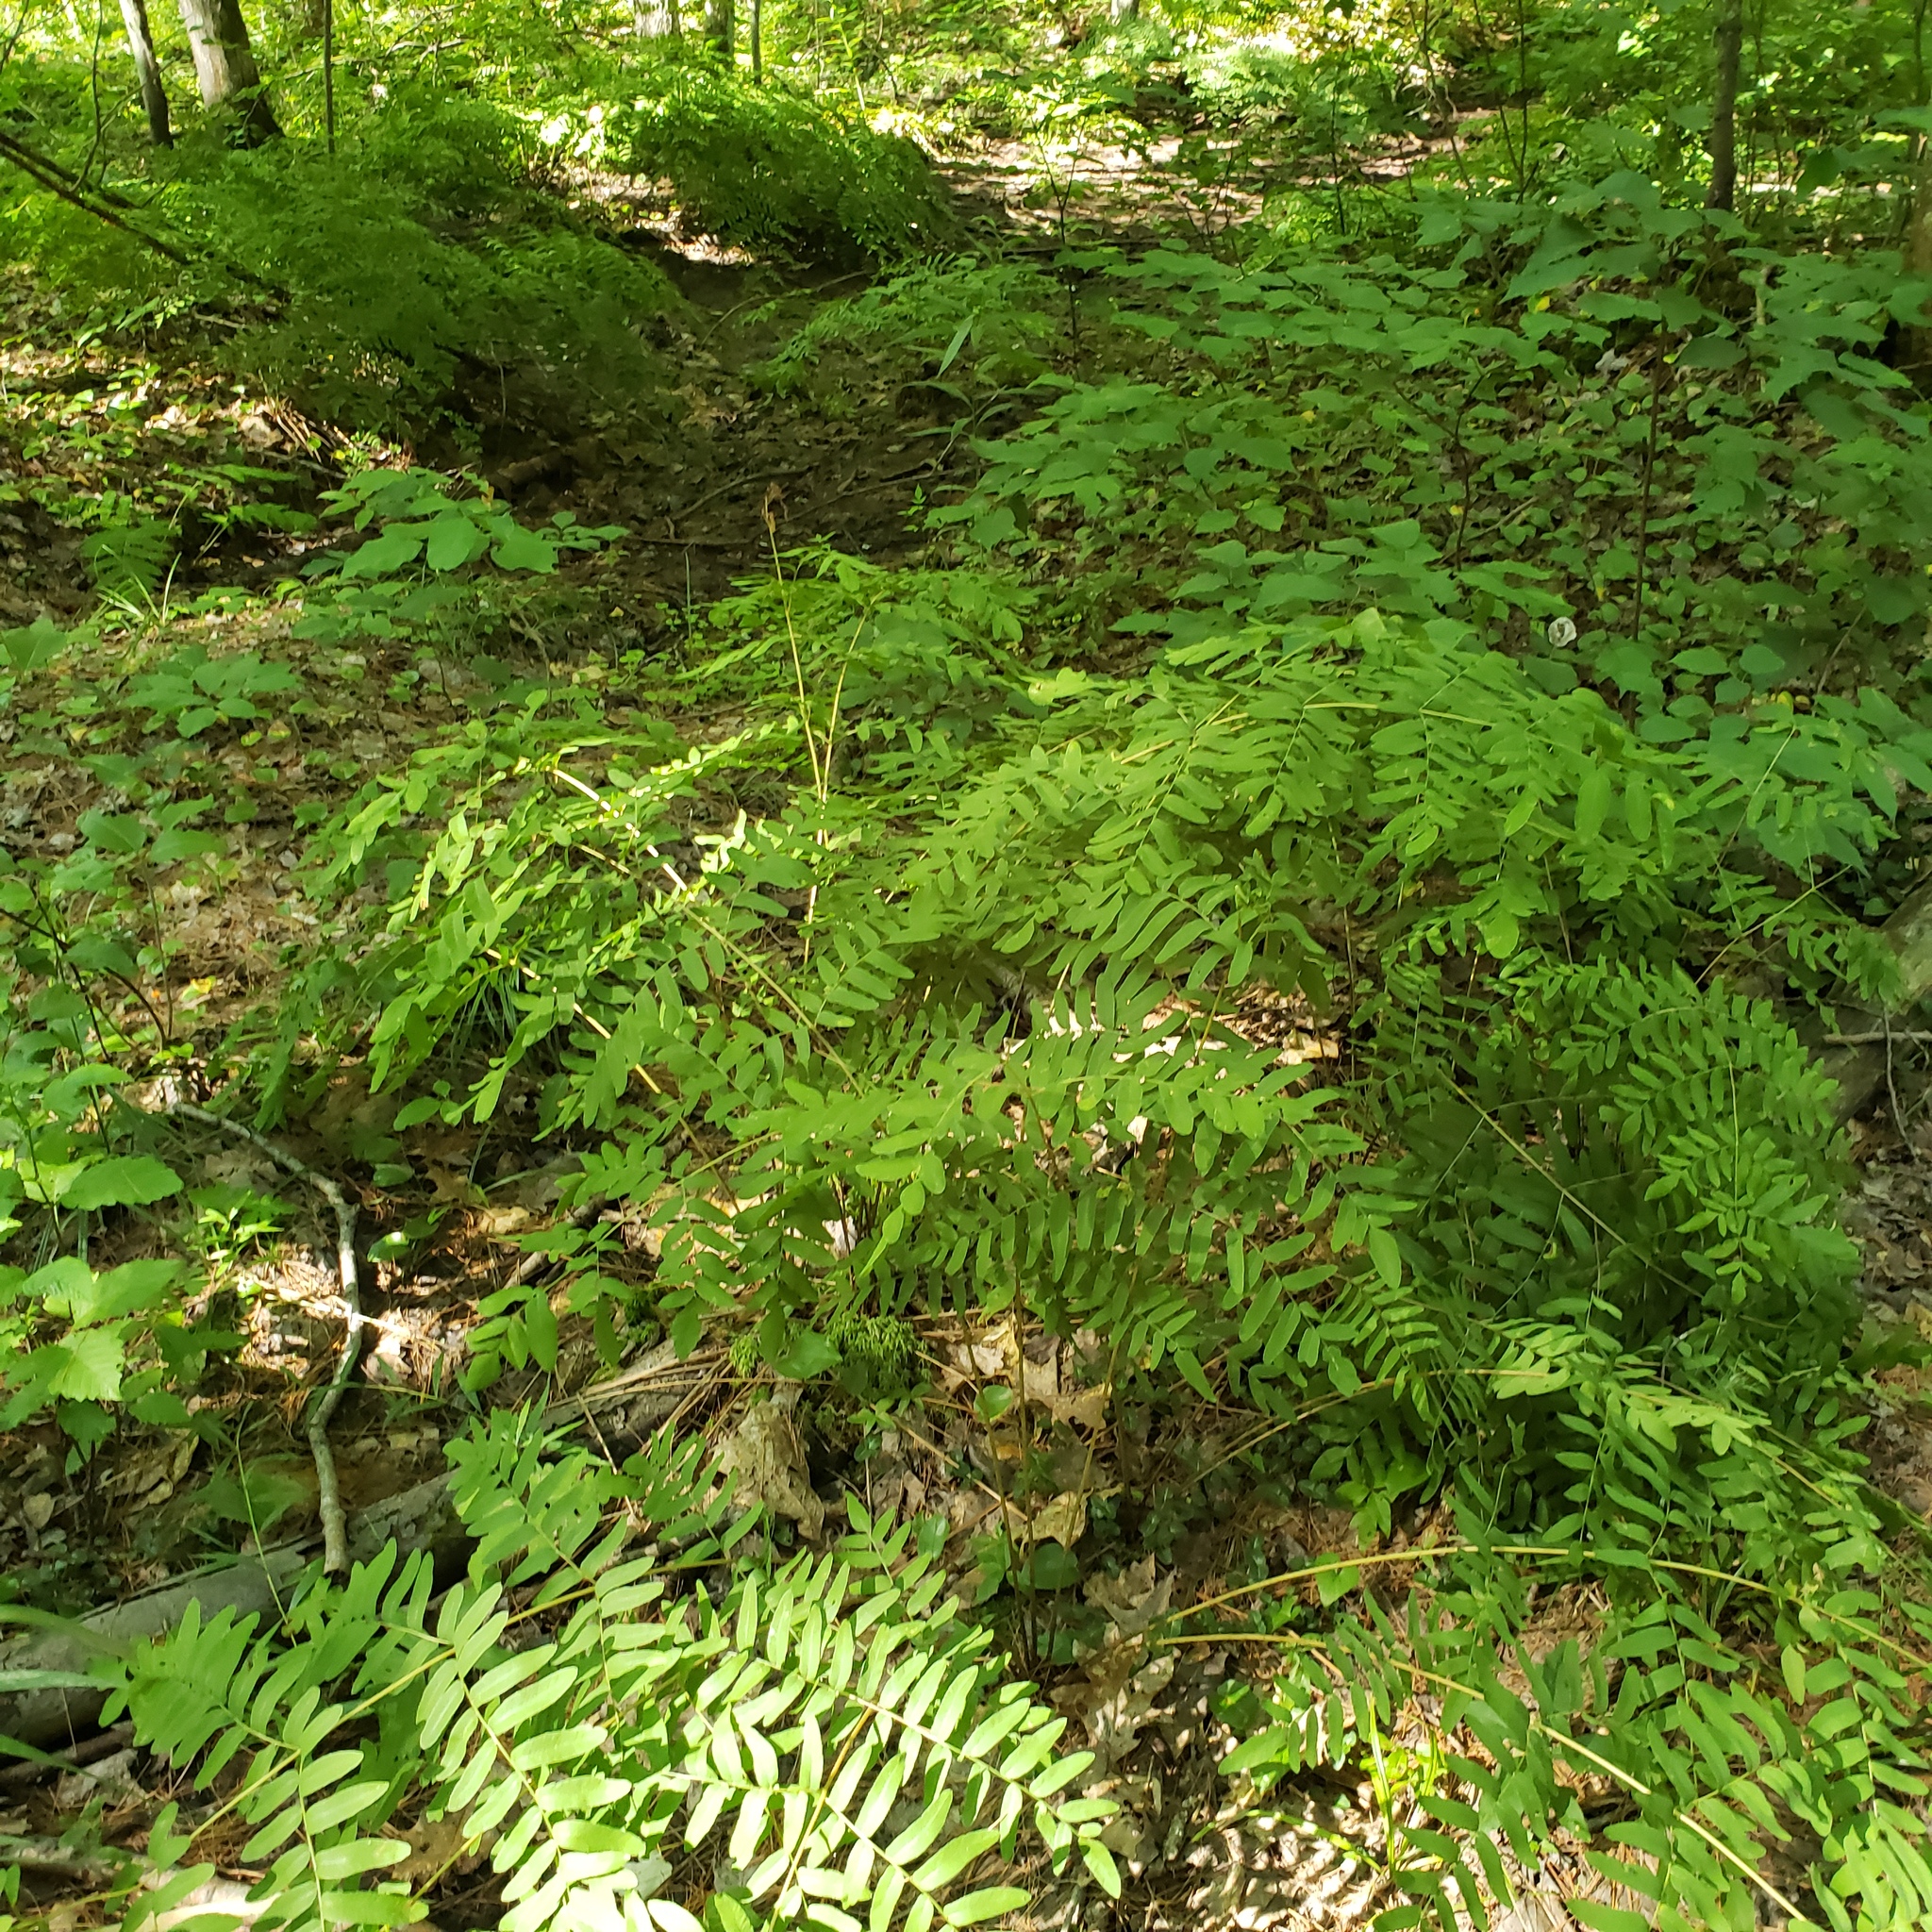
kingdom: Plantae
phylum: Tracheophyta
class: Polypodiopsida
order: Osmundales
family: Osmundaceae
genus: Osmunda
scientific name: Osmunda spectabilis
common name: American royal fern
